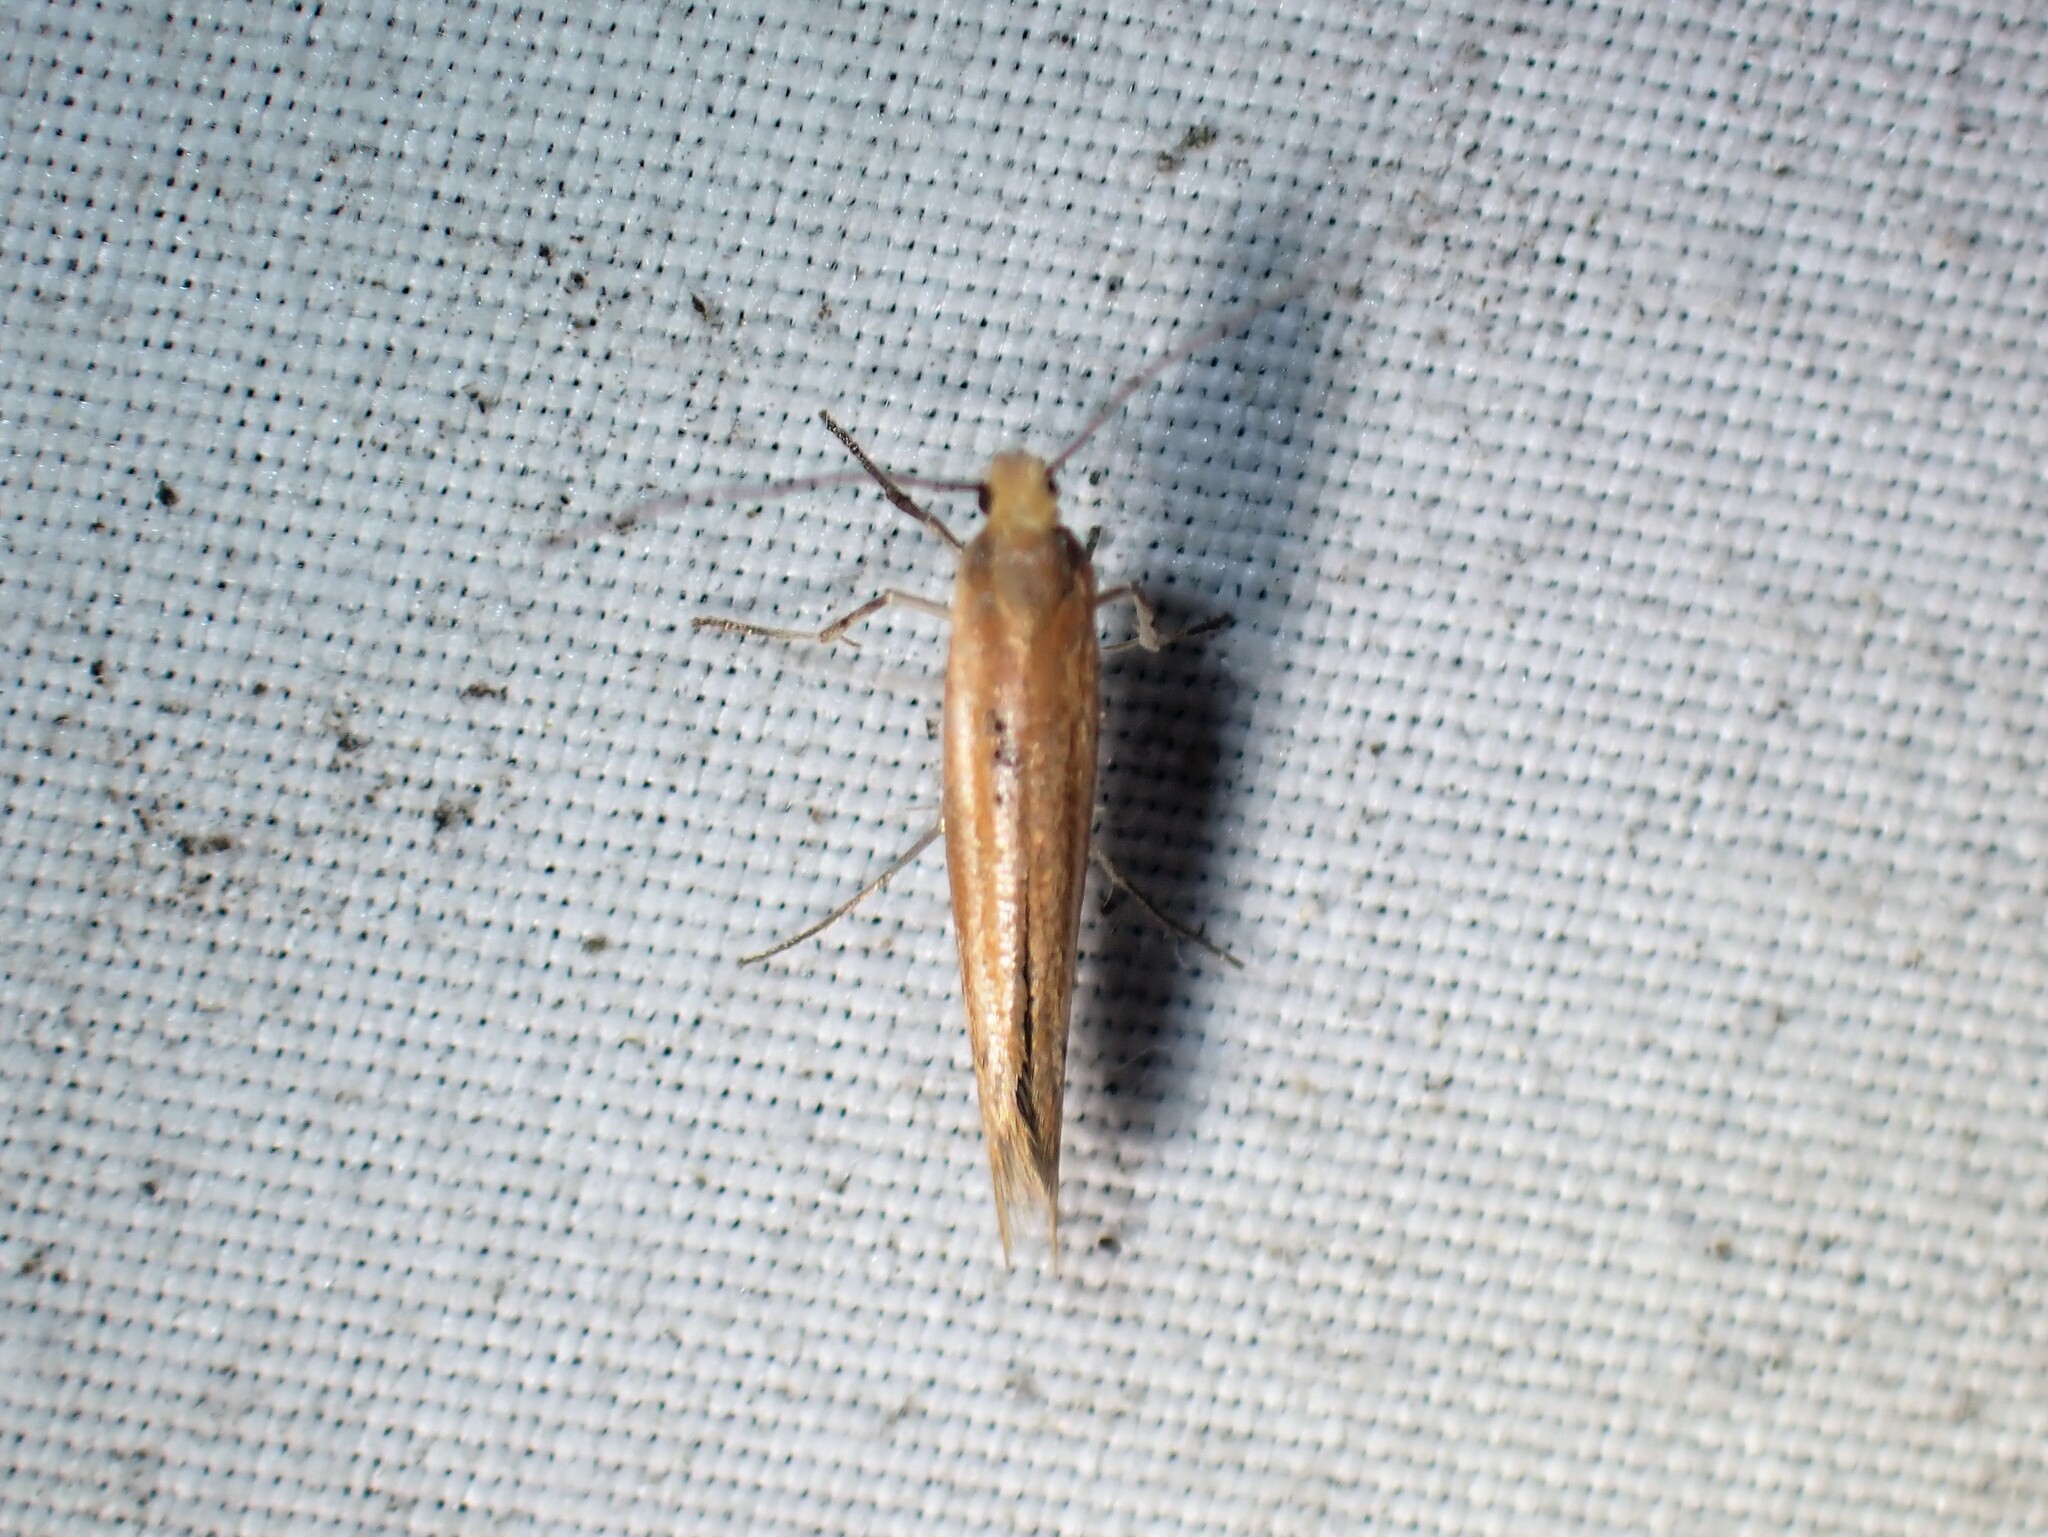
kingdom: Animalia
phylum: Arthropoda
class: Insecta
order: Lepidoptera
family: Yponomeutidae
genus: Euhyponomeutoides
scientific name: Euhyponomeutoides gracilariella
